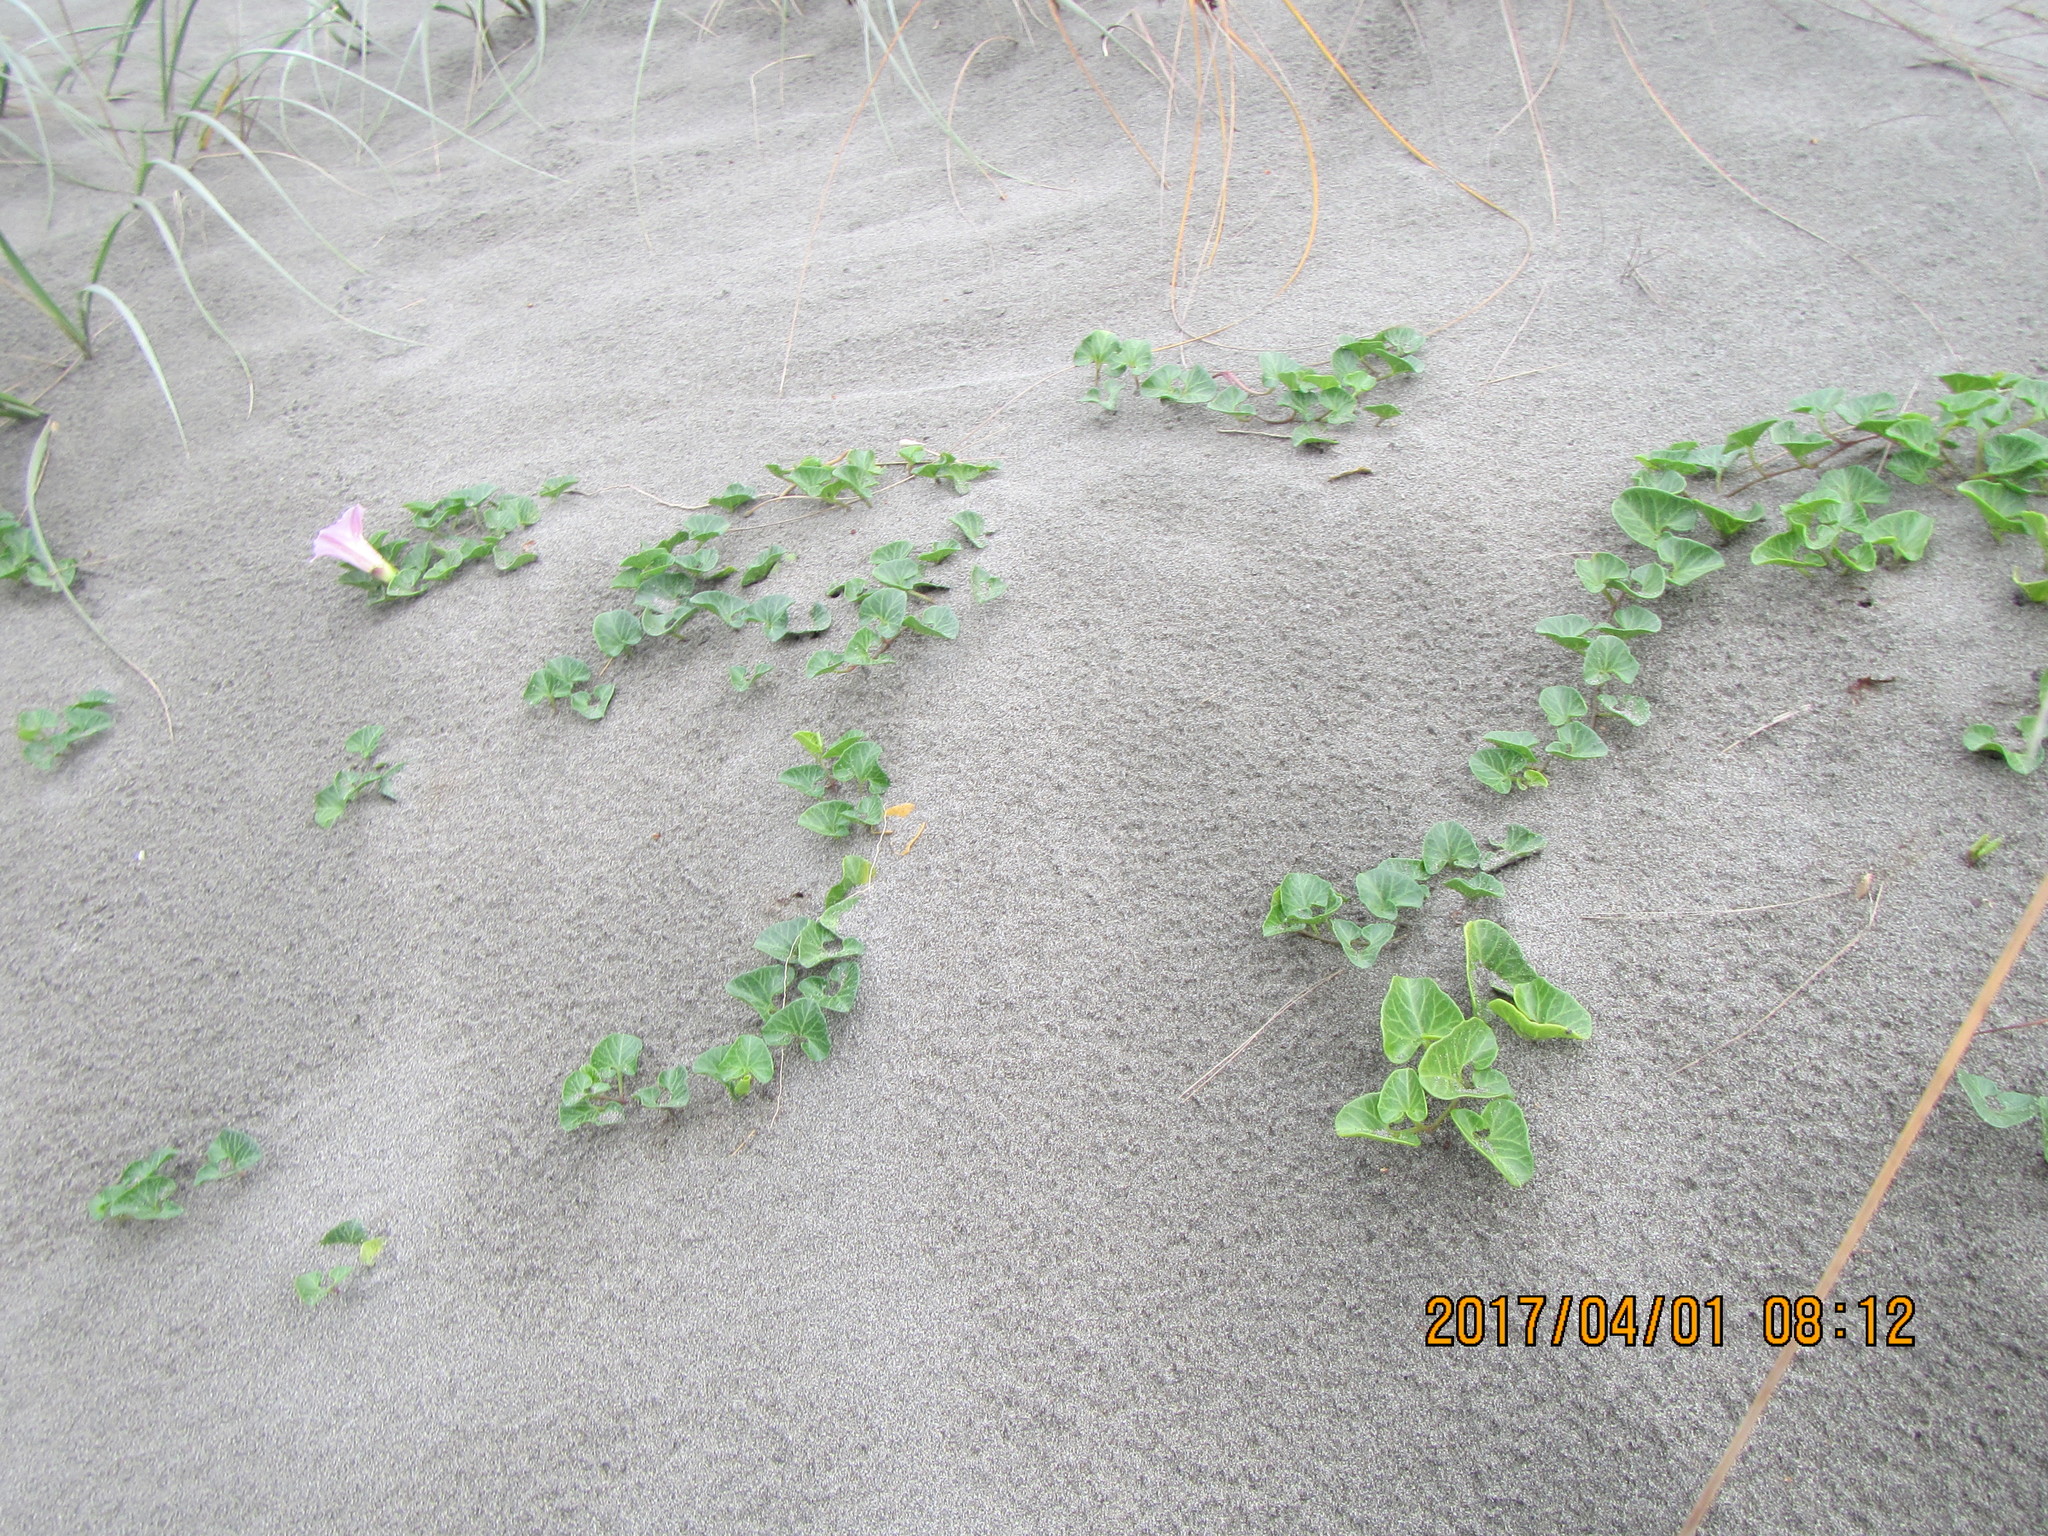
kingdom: Plantae
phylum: Tracheophyta
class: Magnoliopsida
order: Solanales
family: Convolvulaceae
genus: Calystegia
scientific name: Calystegia soldanella
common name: Sea bindweed
